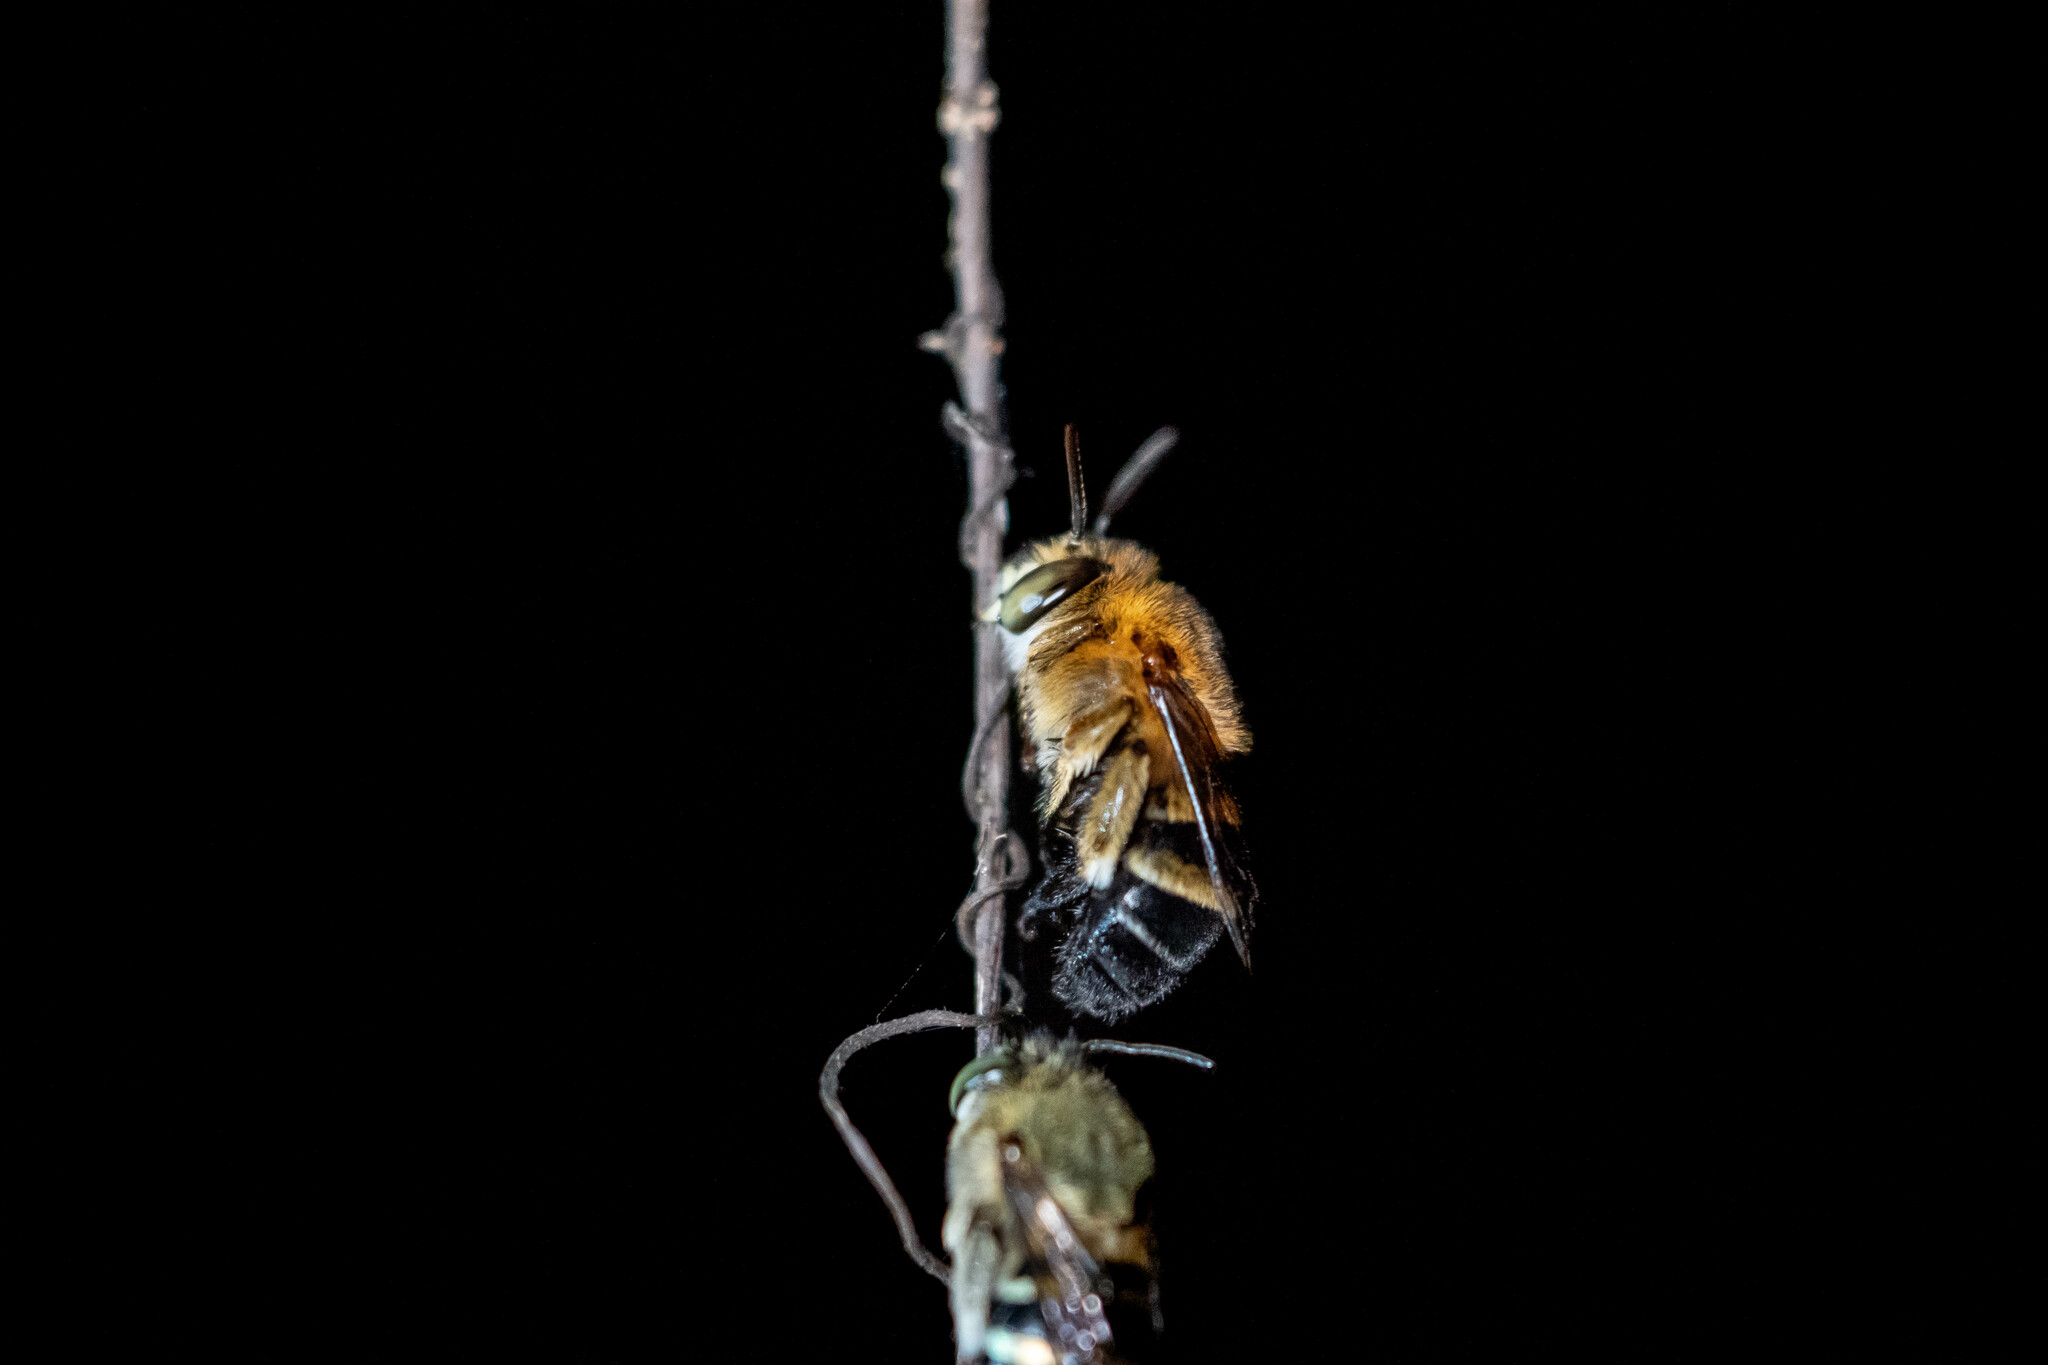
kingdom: Animalia
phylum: Arthropoda
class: Insecta
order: Hymenoptera
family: Apidae
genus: Amegilla
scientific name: Amegilla mesopyrrha
